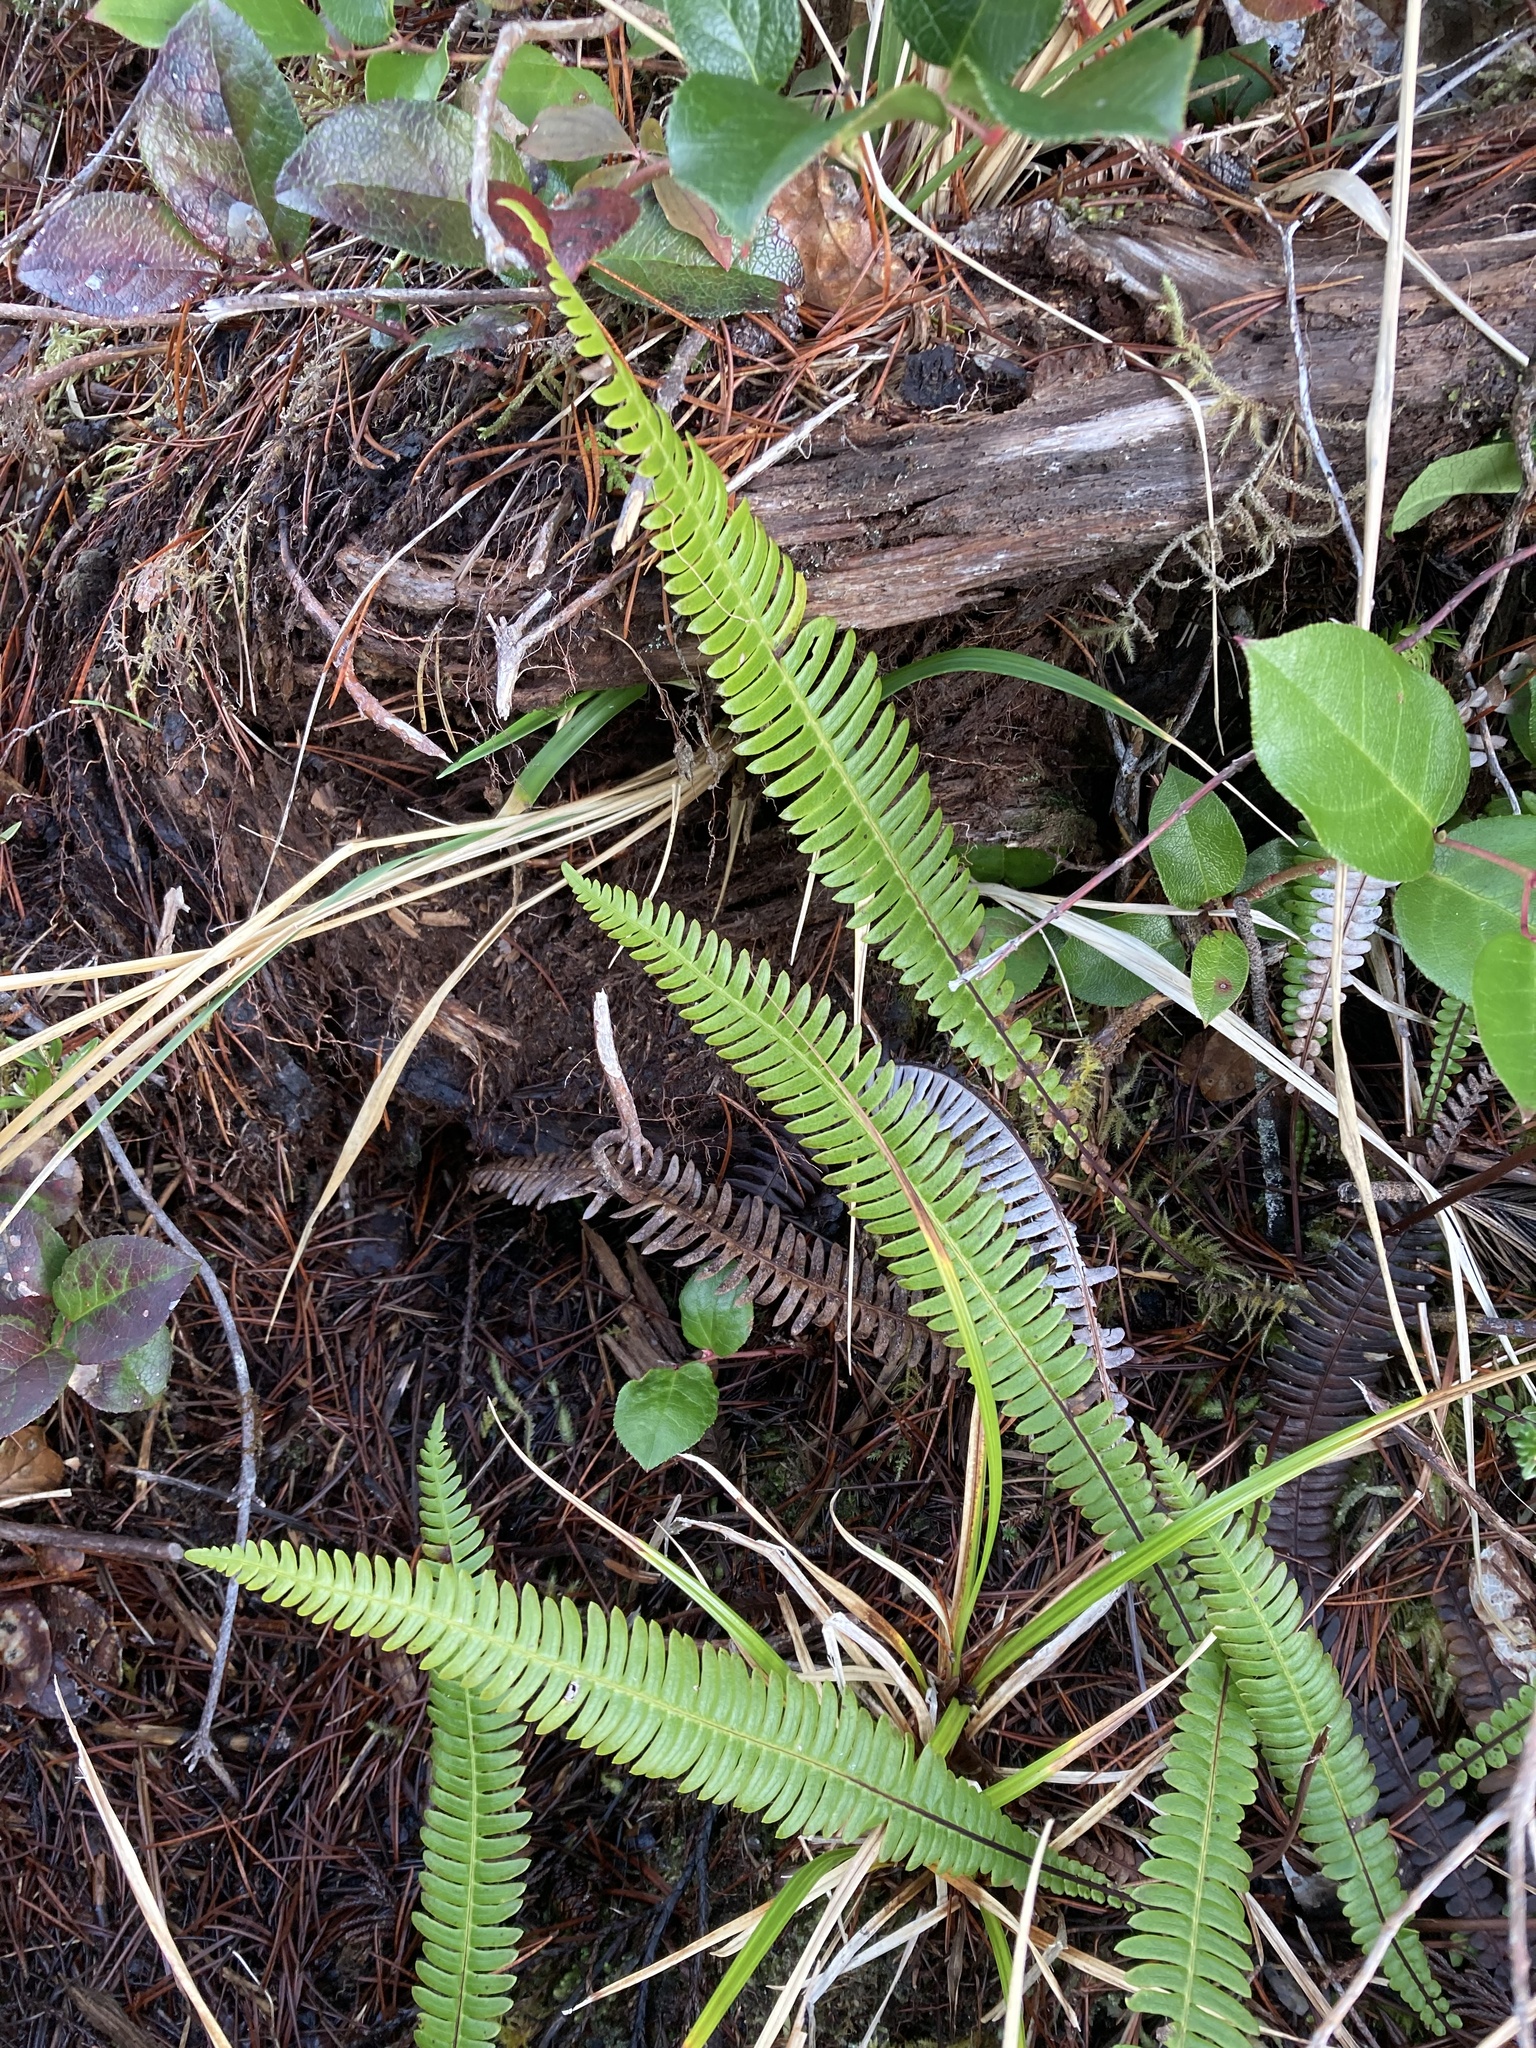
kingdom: Plantae
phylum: Tracheophyta
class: Polypodiopsida
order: Polypodiales
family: Blechnaceae
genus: Struthiopteris
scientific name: Struthiopteris spicant
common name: Deer fern
